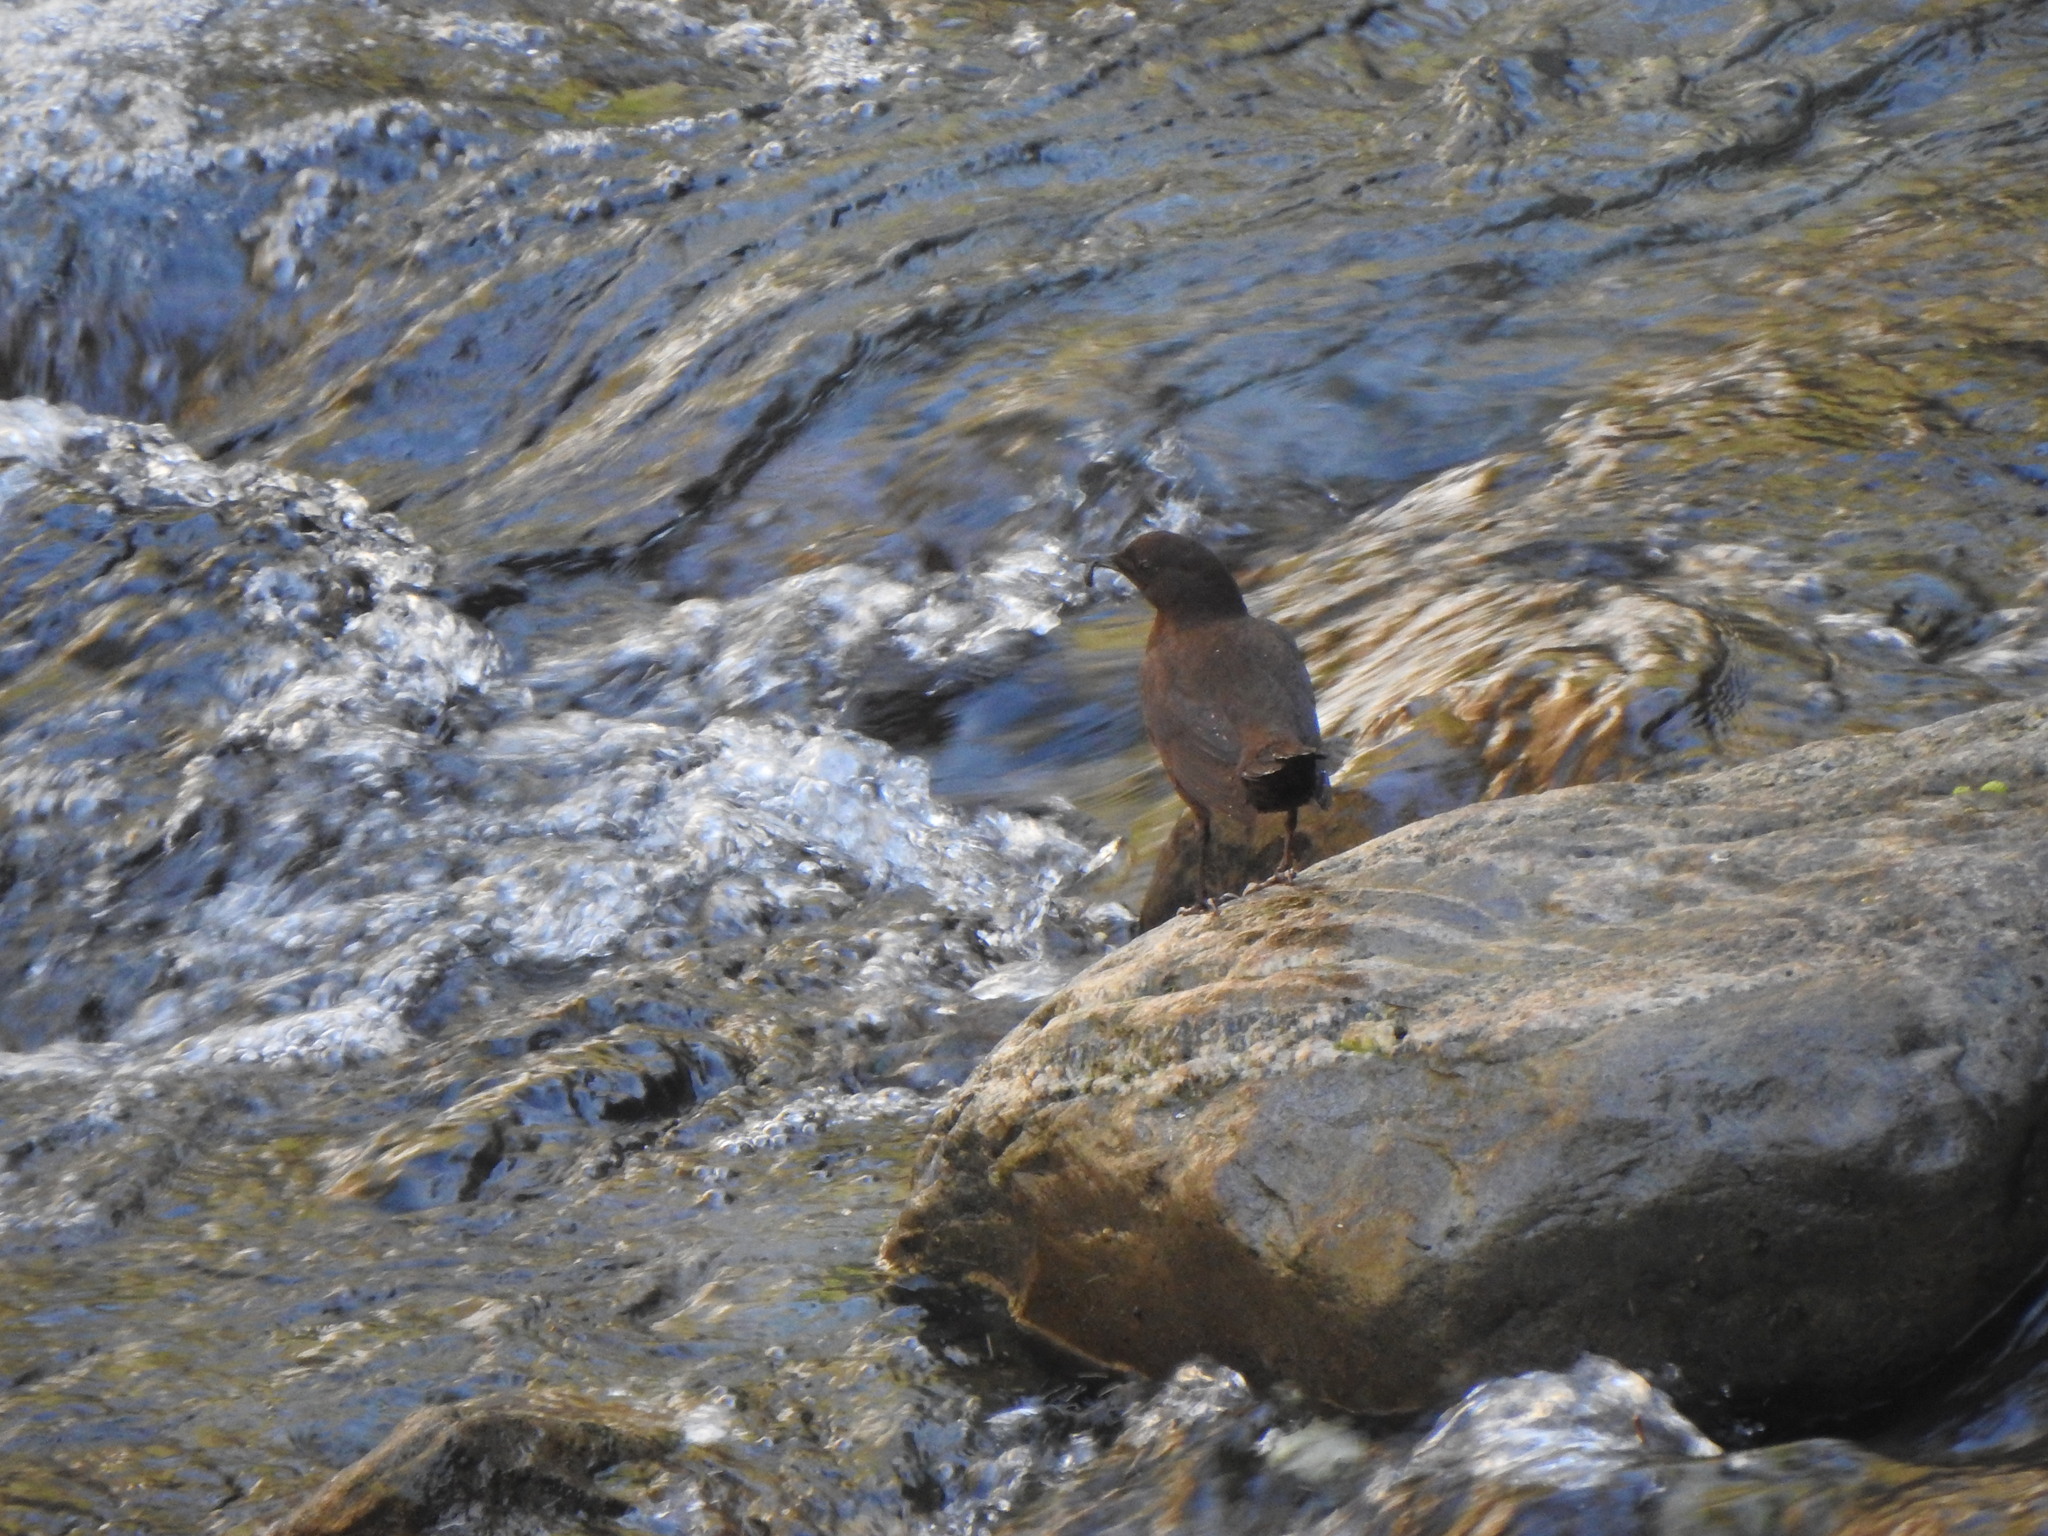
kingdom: Animalia
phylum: Chordata
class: Aves
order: Passeriformes
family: Cinclidae
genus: Cinclus
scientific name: Cinclus pallasii
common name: Brown dipper
